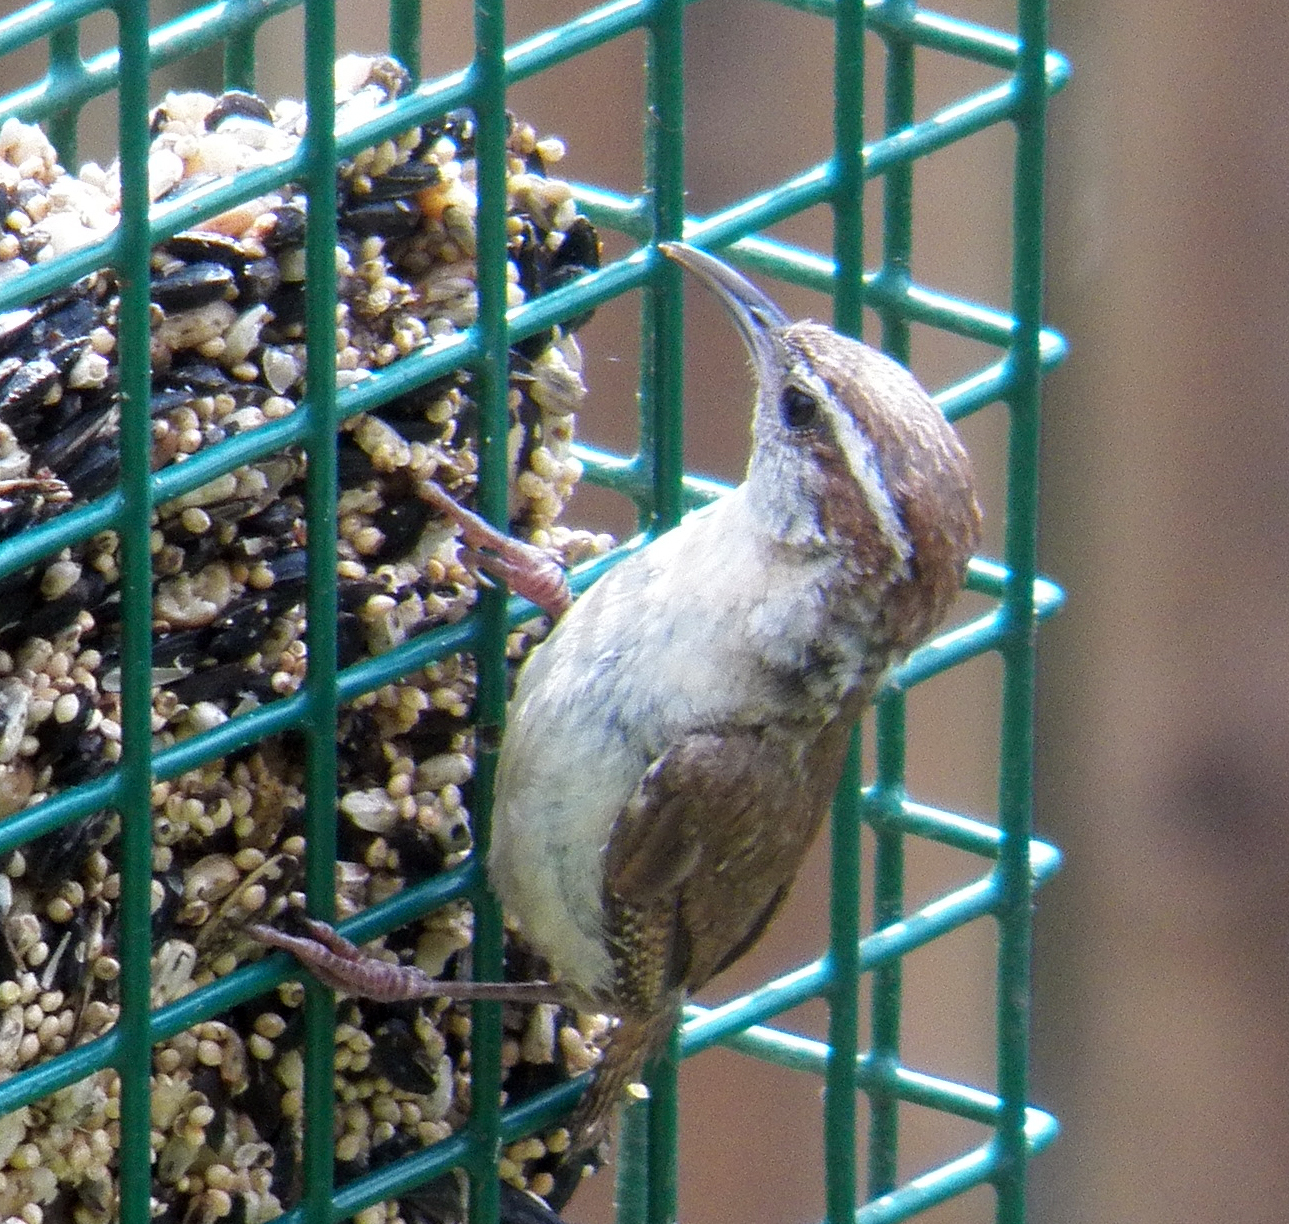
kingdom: Animalia
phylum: Chordata
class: Aves
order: Passeriformes
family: Troglodytidae
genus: Thryothorus
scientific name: Thryothorus ludovicianus
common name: Carolina wren
